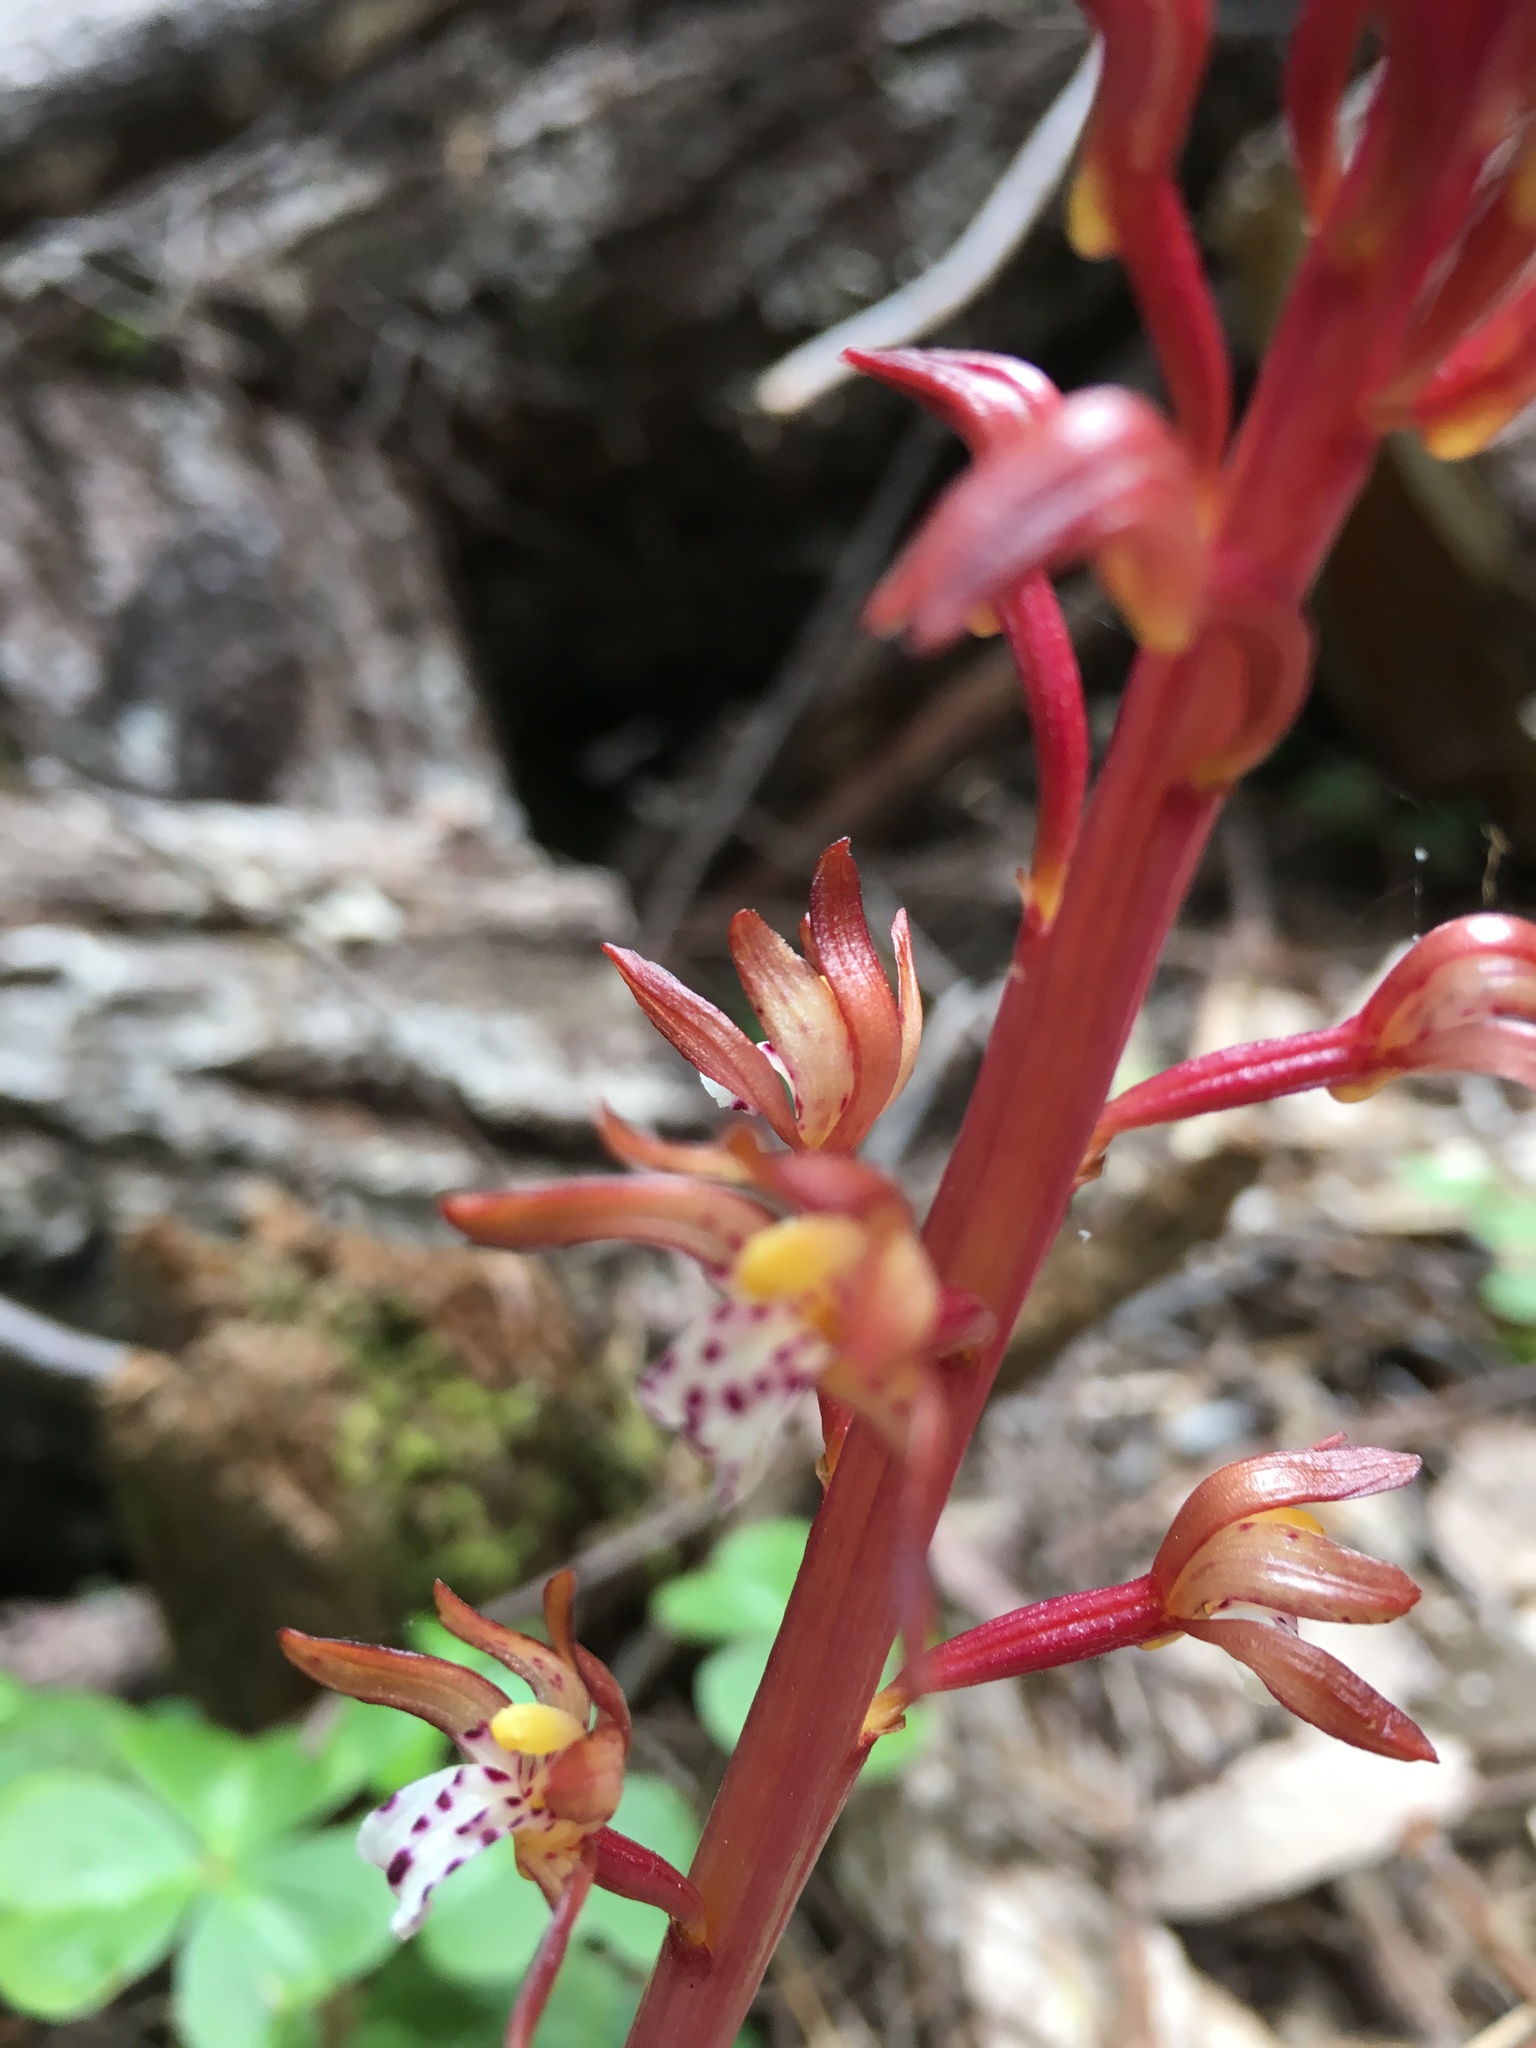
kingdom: Plantae
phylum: Tracheophyta
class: Liliopsida
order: Asparagales
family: Orchidaceae
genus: Corallorhiza
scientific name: Corallorhiza maculata
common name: Spotted coralroot
